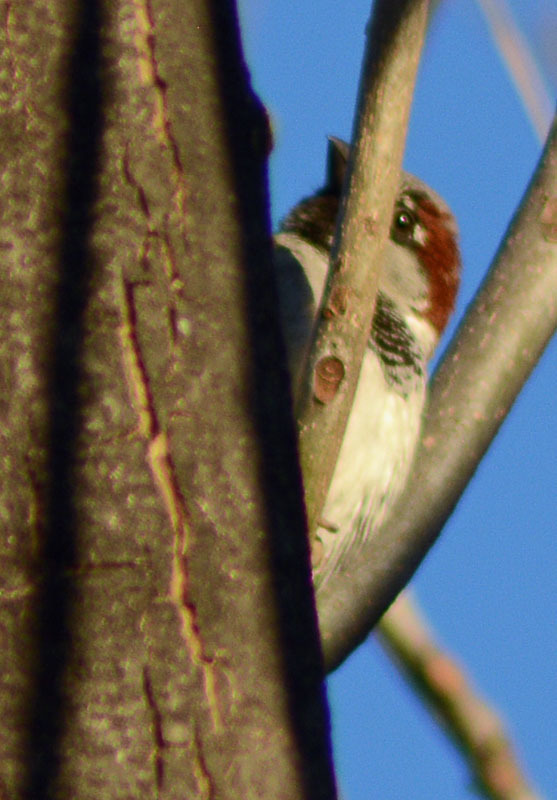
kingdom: Animalia
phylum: Chordata
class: Aves
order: Passeriformes
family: Passeridae
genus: Passer
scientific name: Passer domesticus
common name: House sparrow
